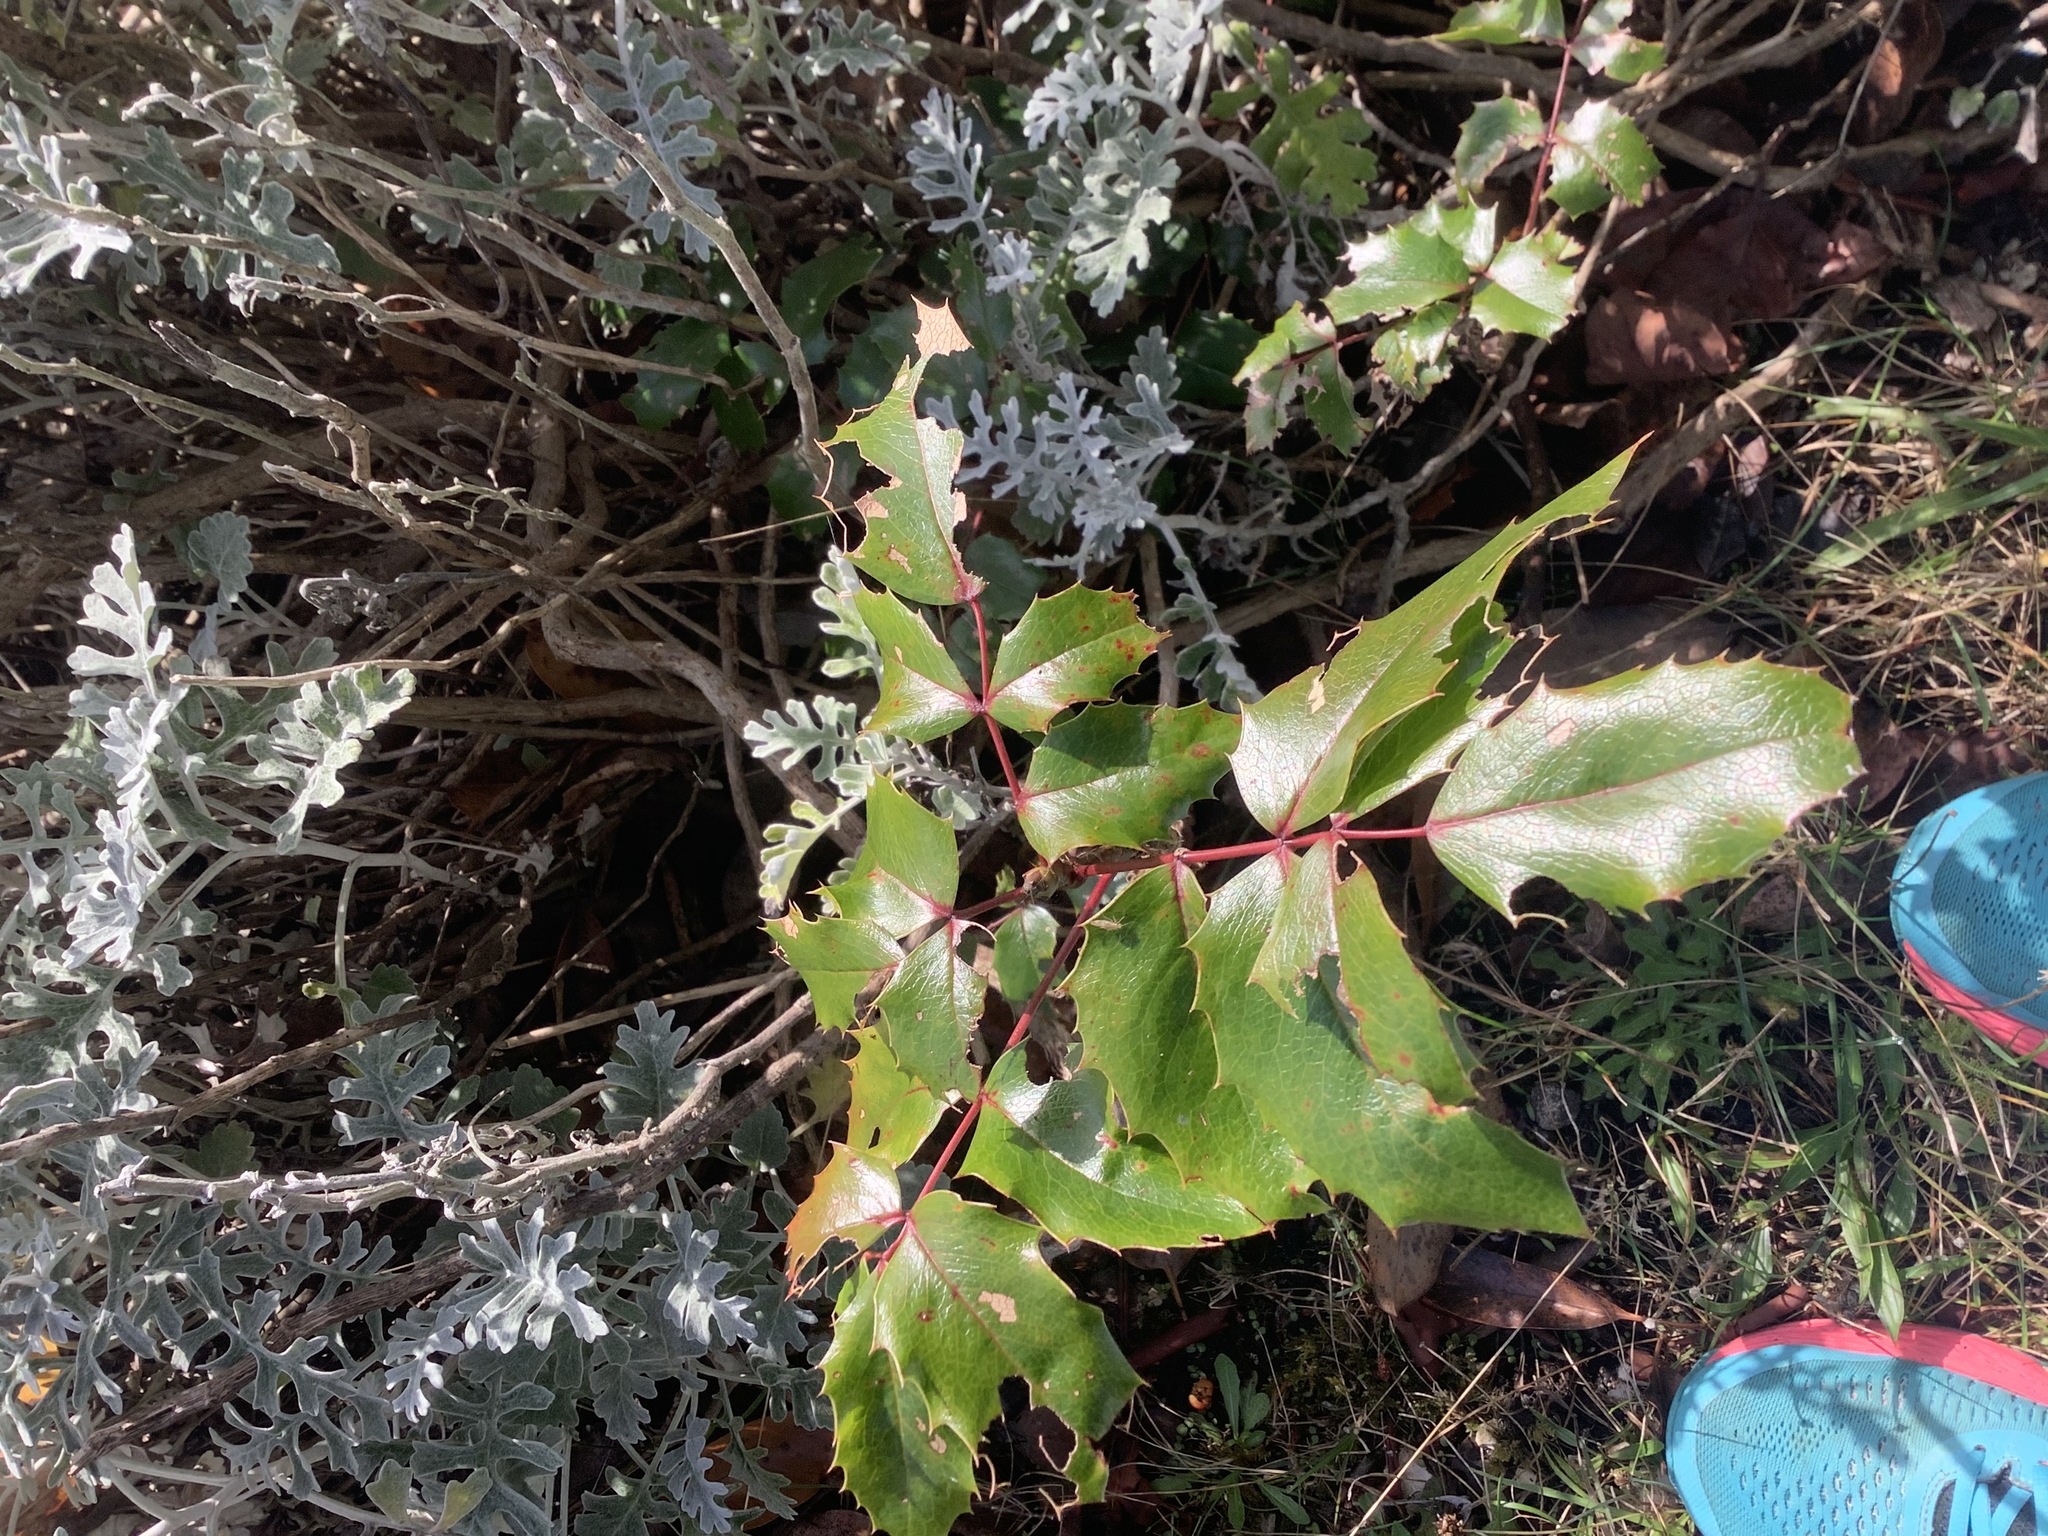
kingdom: Plantae
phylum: Tracheophyta
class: Magnoliopsida
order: Ranunculales
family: Berberidaceae
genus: Mahonia
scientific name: Mahonia aquifolium
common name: Oregon-grape
